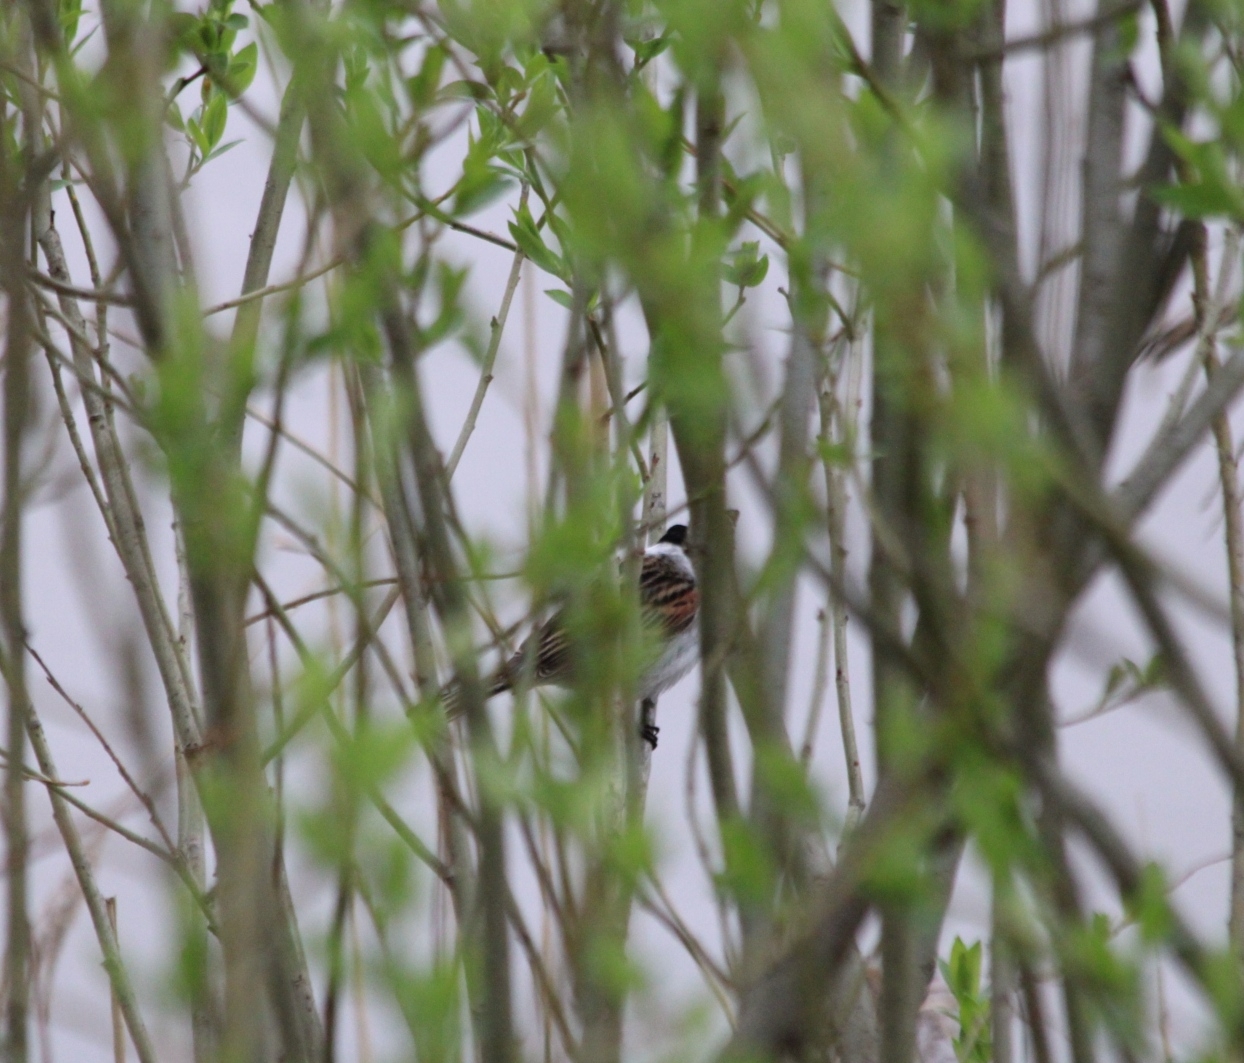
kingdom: Animalia
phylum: Chordata
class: Aves
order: Passeriformes
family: Emberizidae
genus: Emberiza
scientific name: Emberiza schoeniclus
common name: Reed bunting
